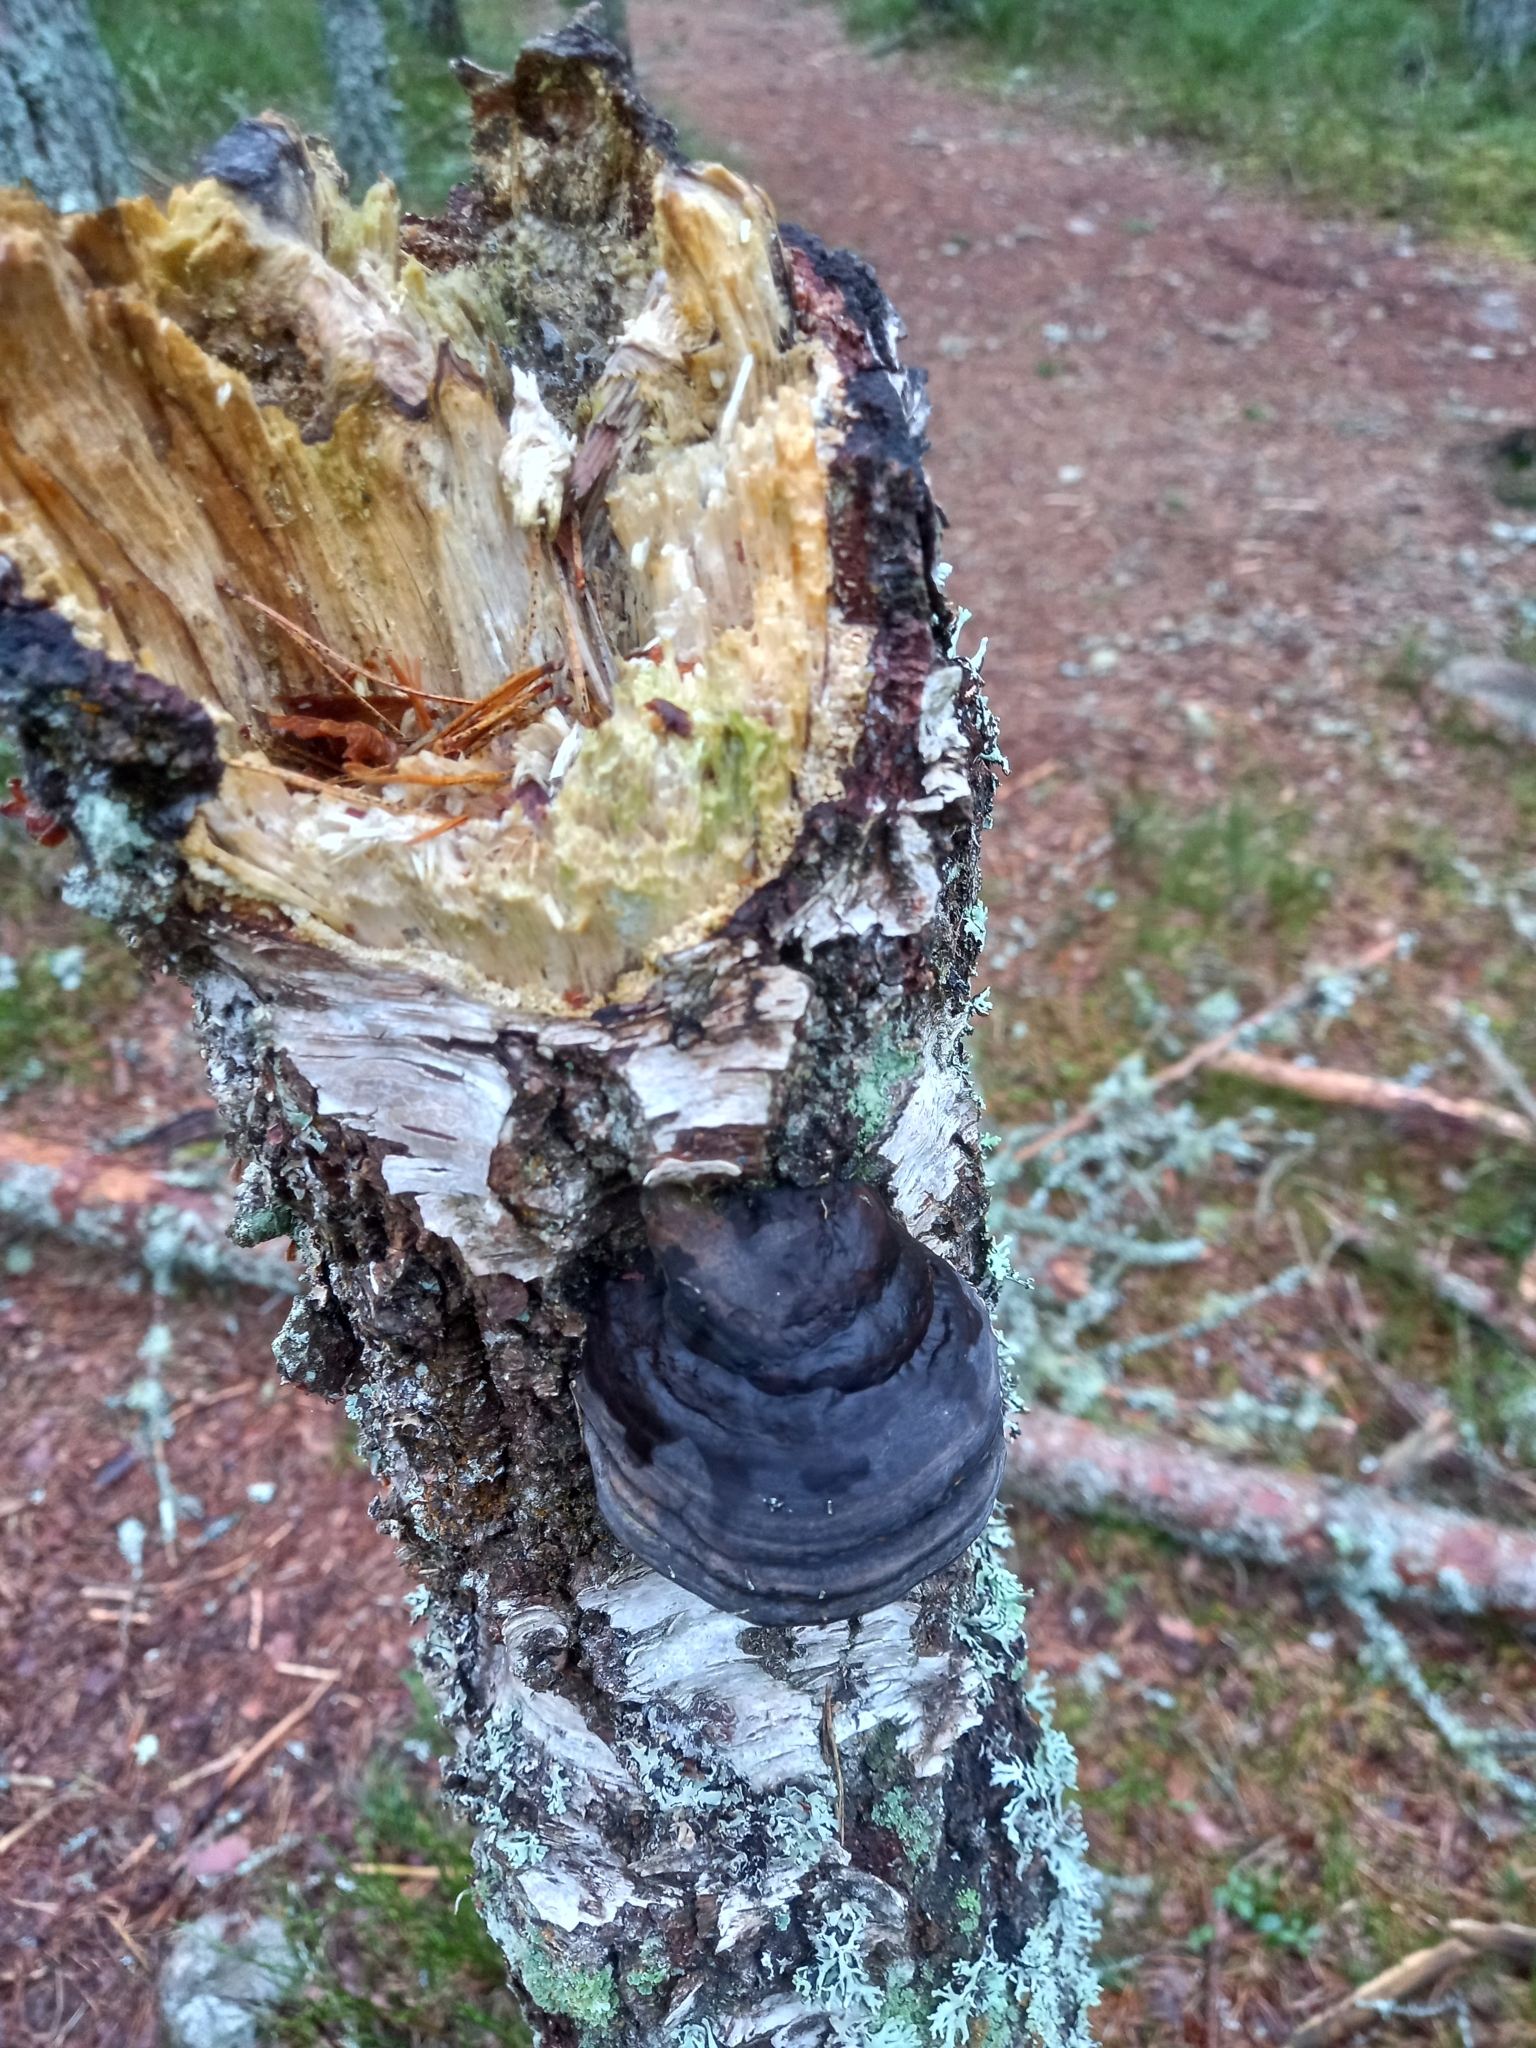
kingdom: Fungi
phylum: Basidiomycota
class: Agaricomycetes
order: Polyporales
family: Polyporaceae
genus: Fomes
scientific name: Fomes fomentarius
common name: Hoof fungus
